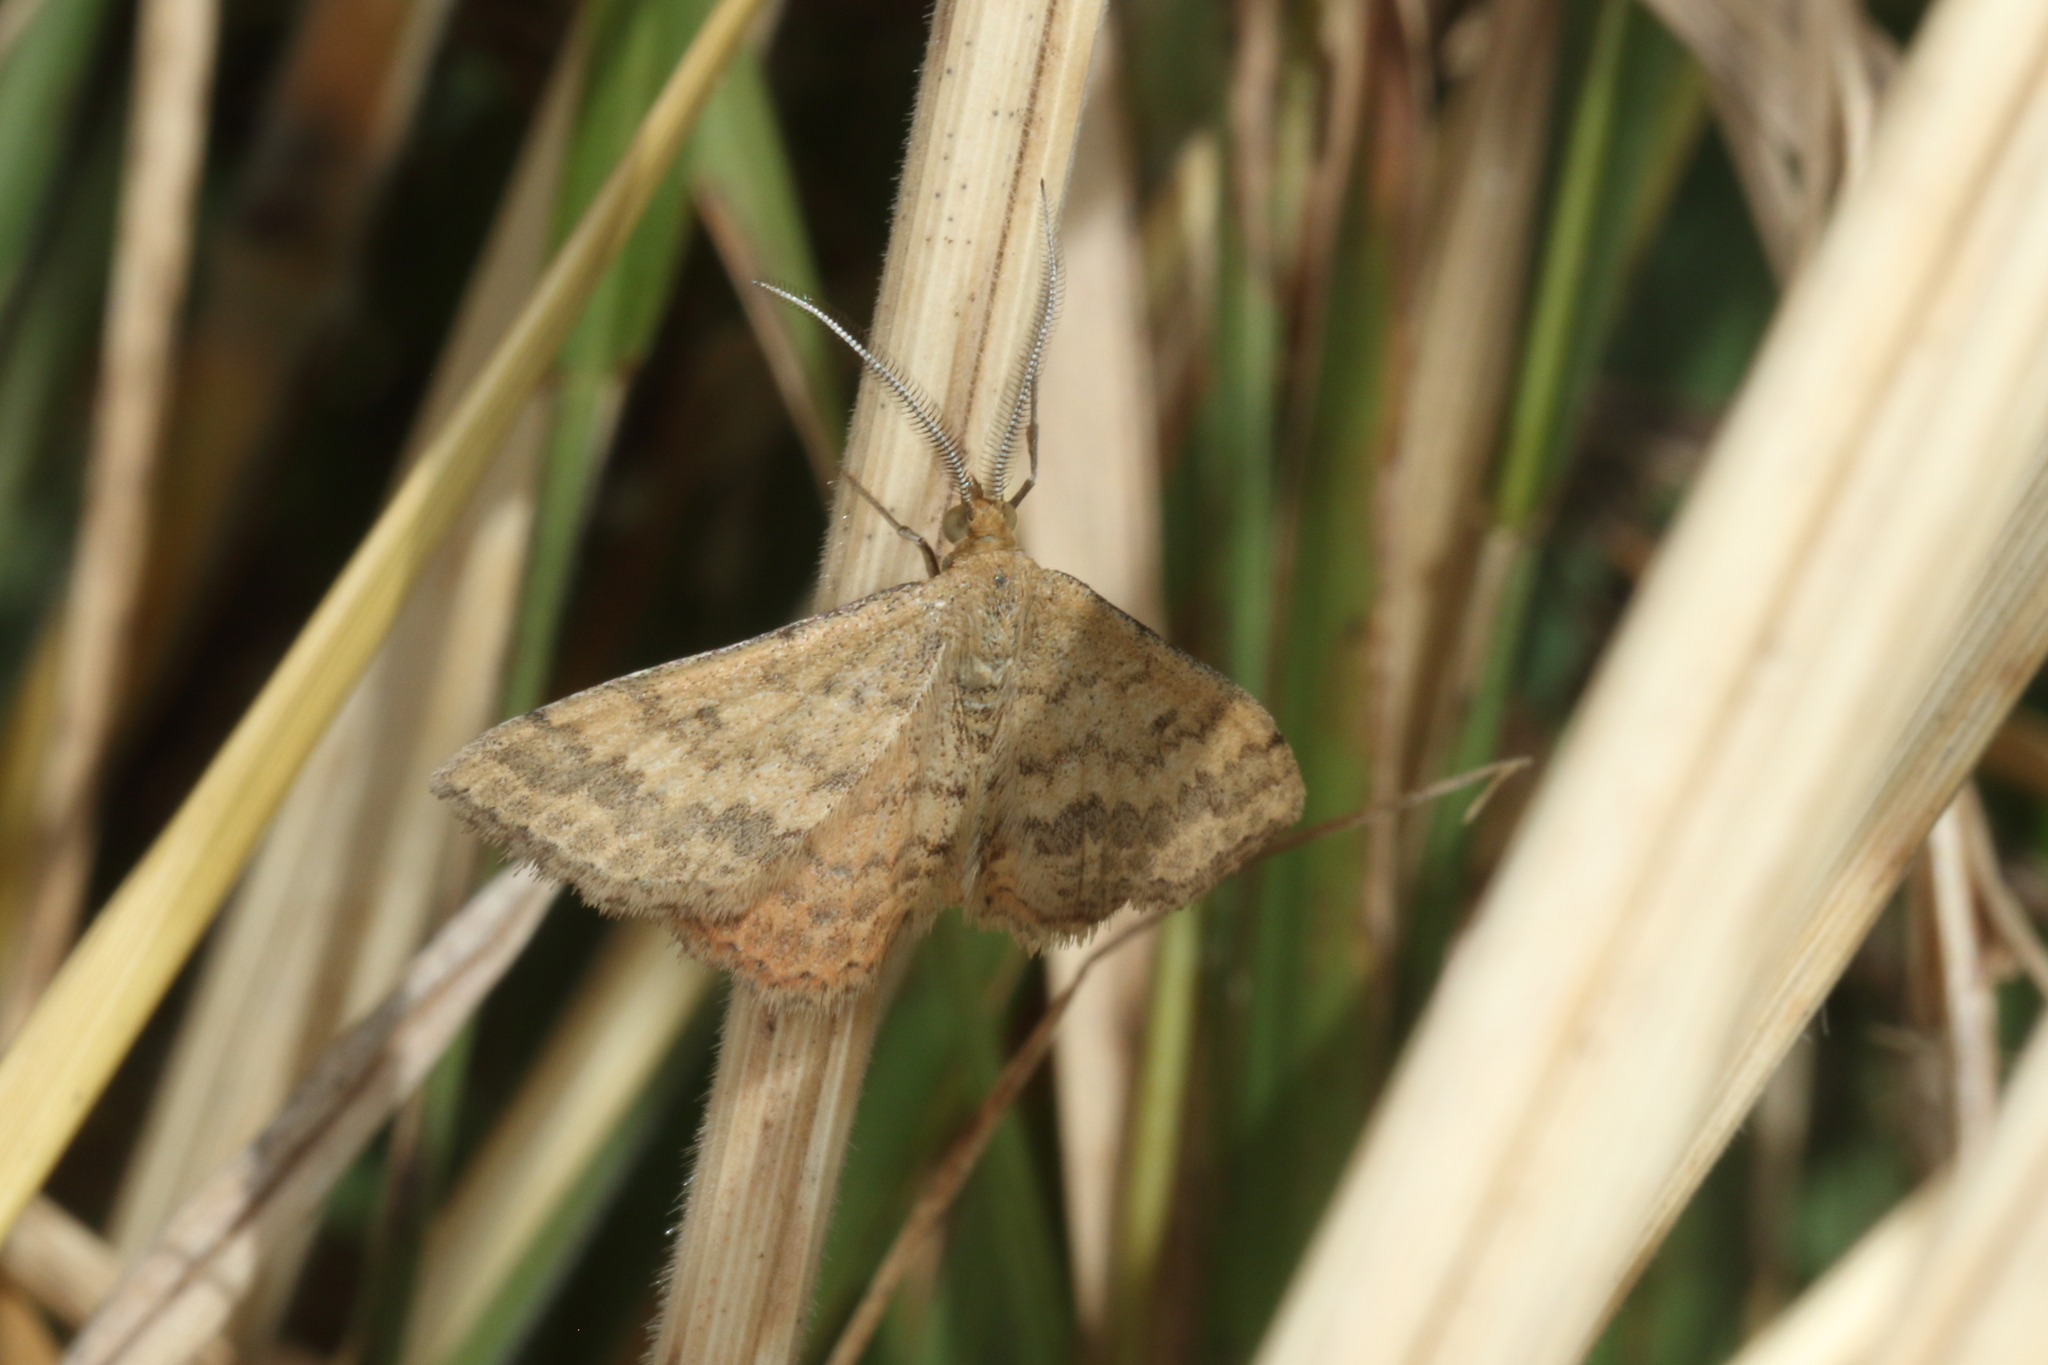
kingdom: Animalia
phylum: Arthropoda
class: Insecta
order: Lepidoptera
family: Geometridae
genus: Scopula
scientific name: Scopula rubraria
